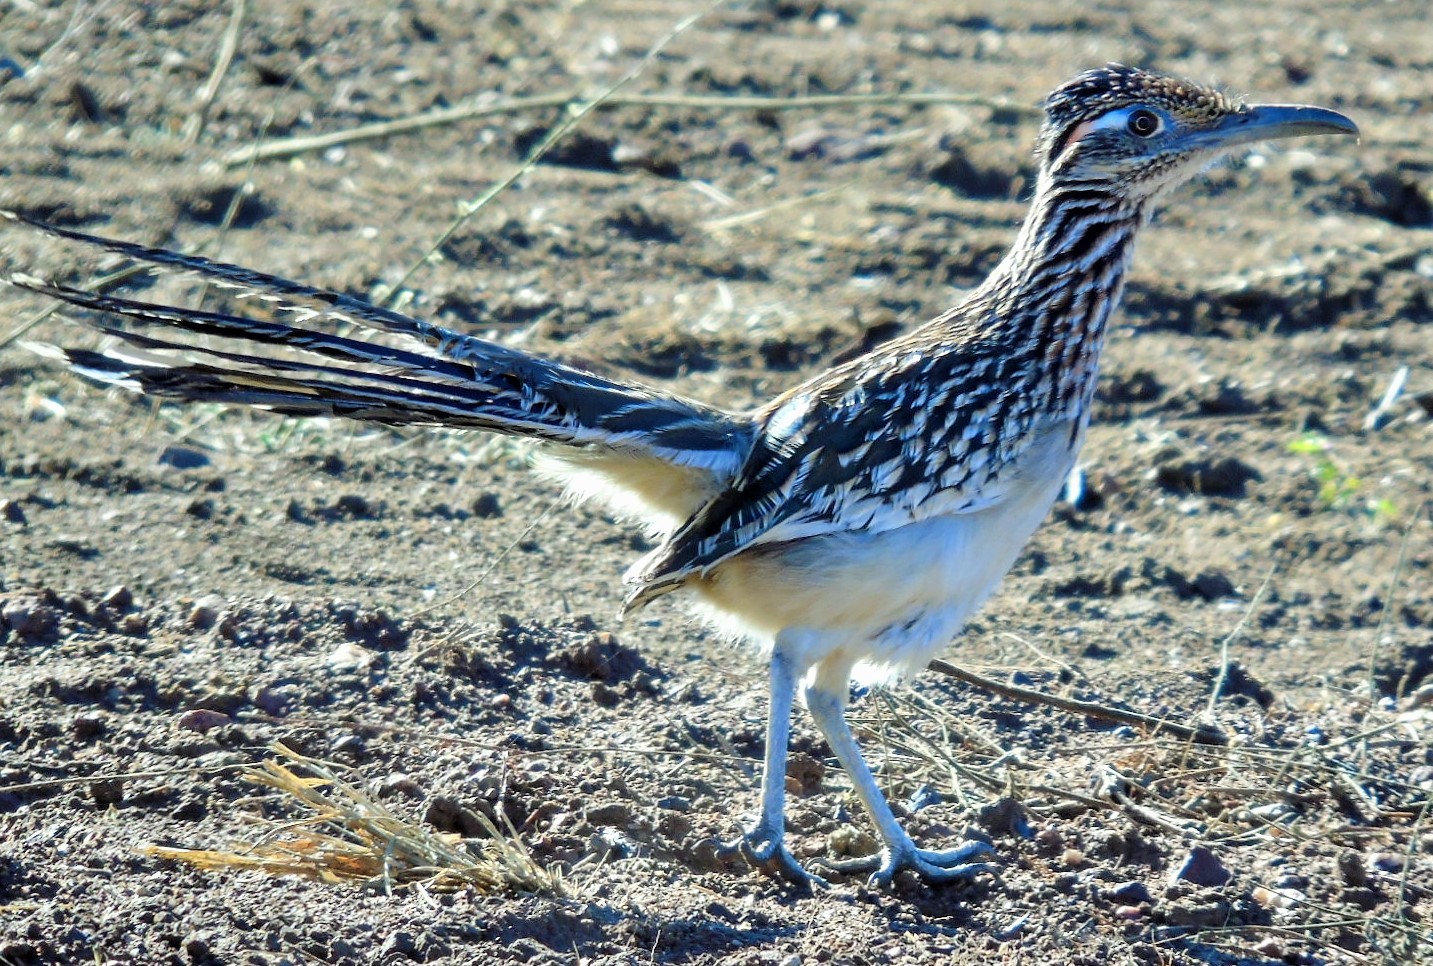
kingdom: Animalia
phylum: Chordata
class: Aves
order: Cuculiformes
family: Cuculidae
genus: Geococcyx
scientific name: Geococcyx californianus
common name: Greater roadrunner
